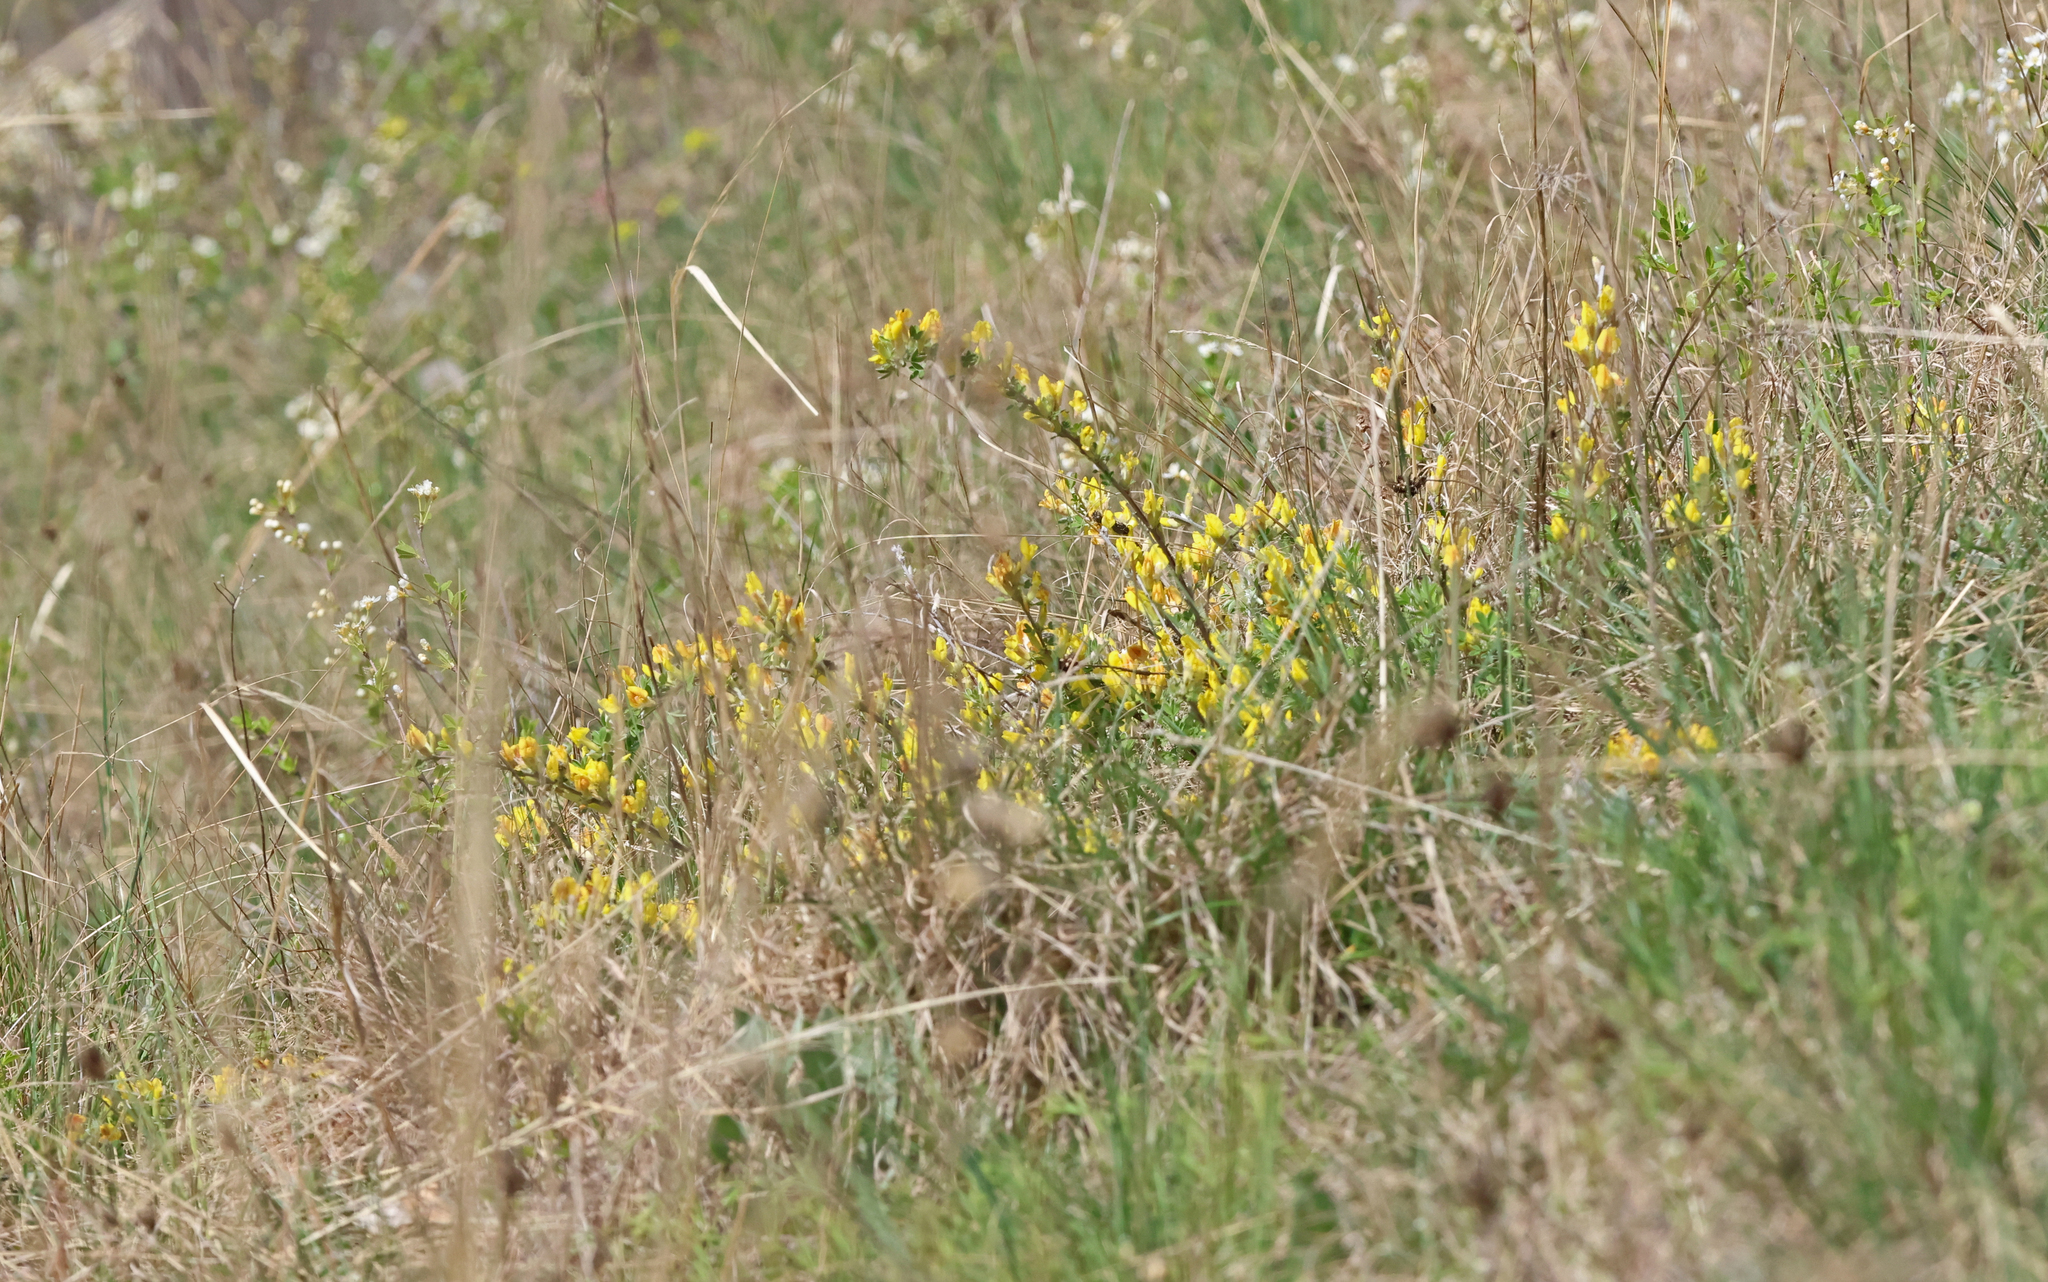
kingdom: Plantae
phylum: Tracheophyta
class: Magnoliopsida
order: Fabales
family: Fabaceae
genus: Chamaecytisus
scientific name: Chamaecytisus ratisbonensis
